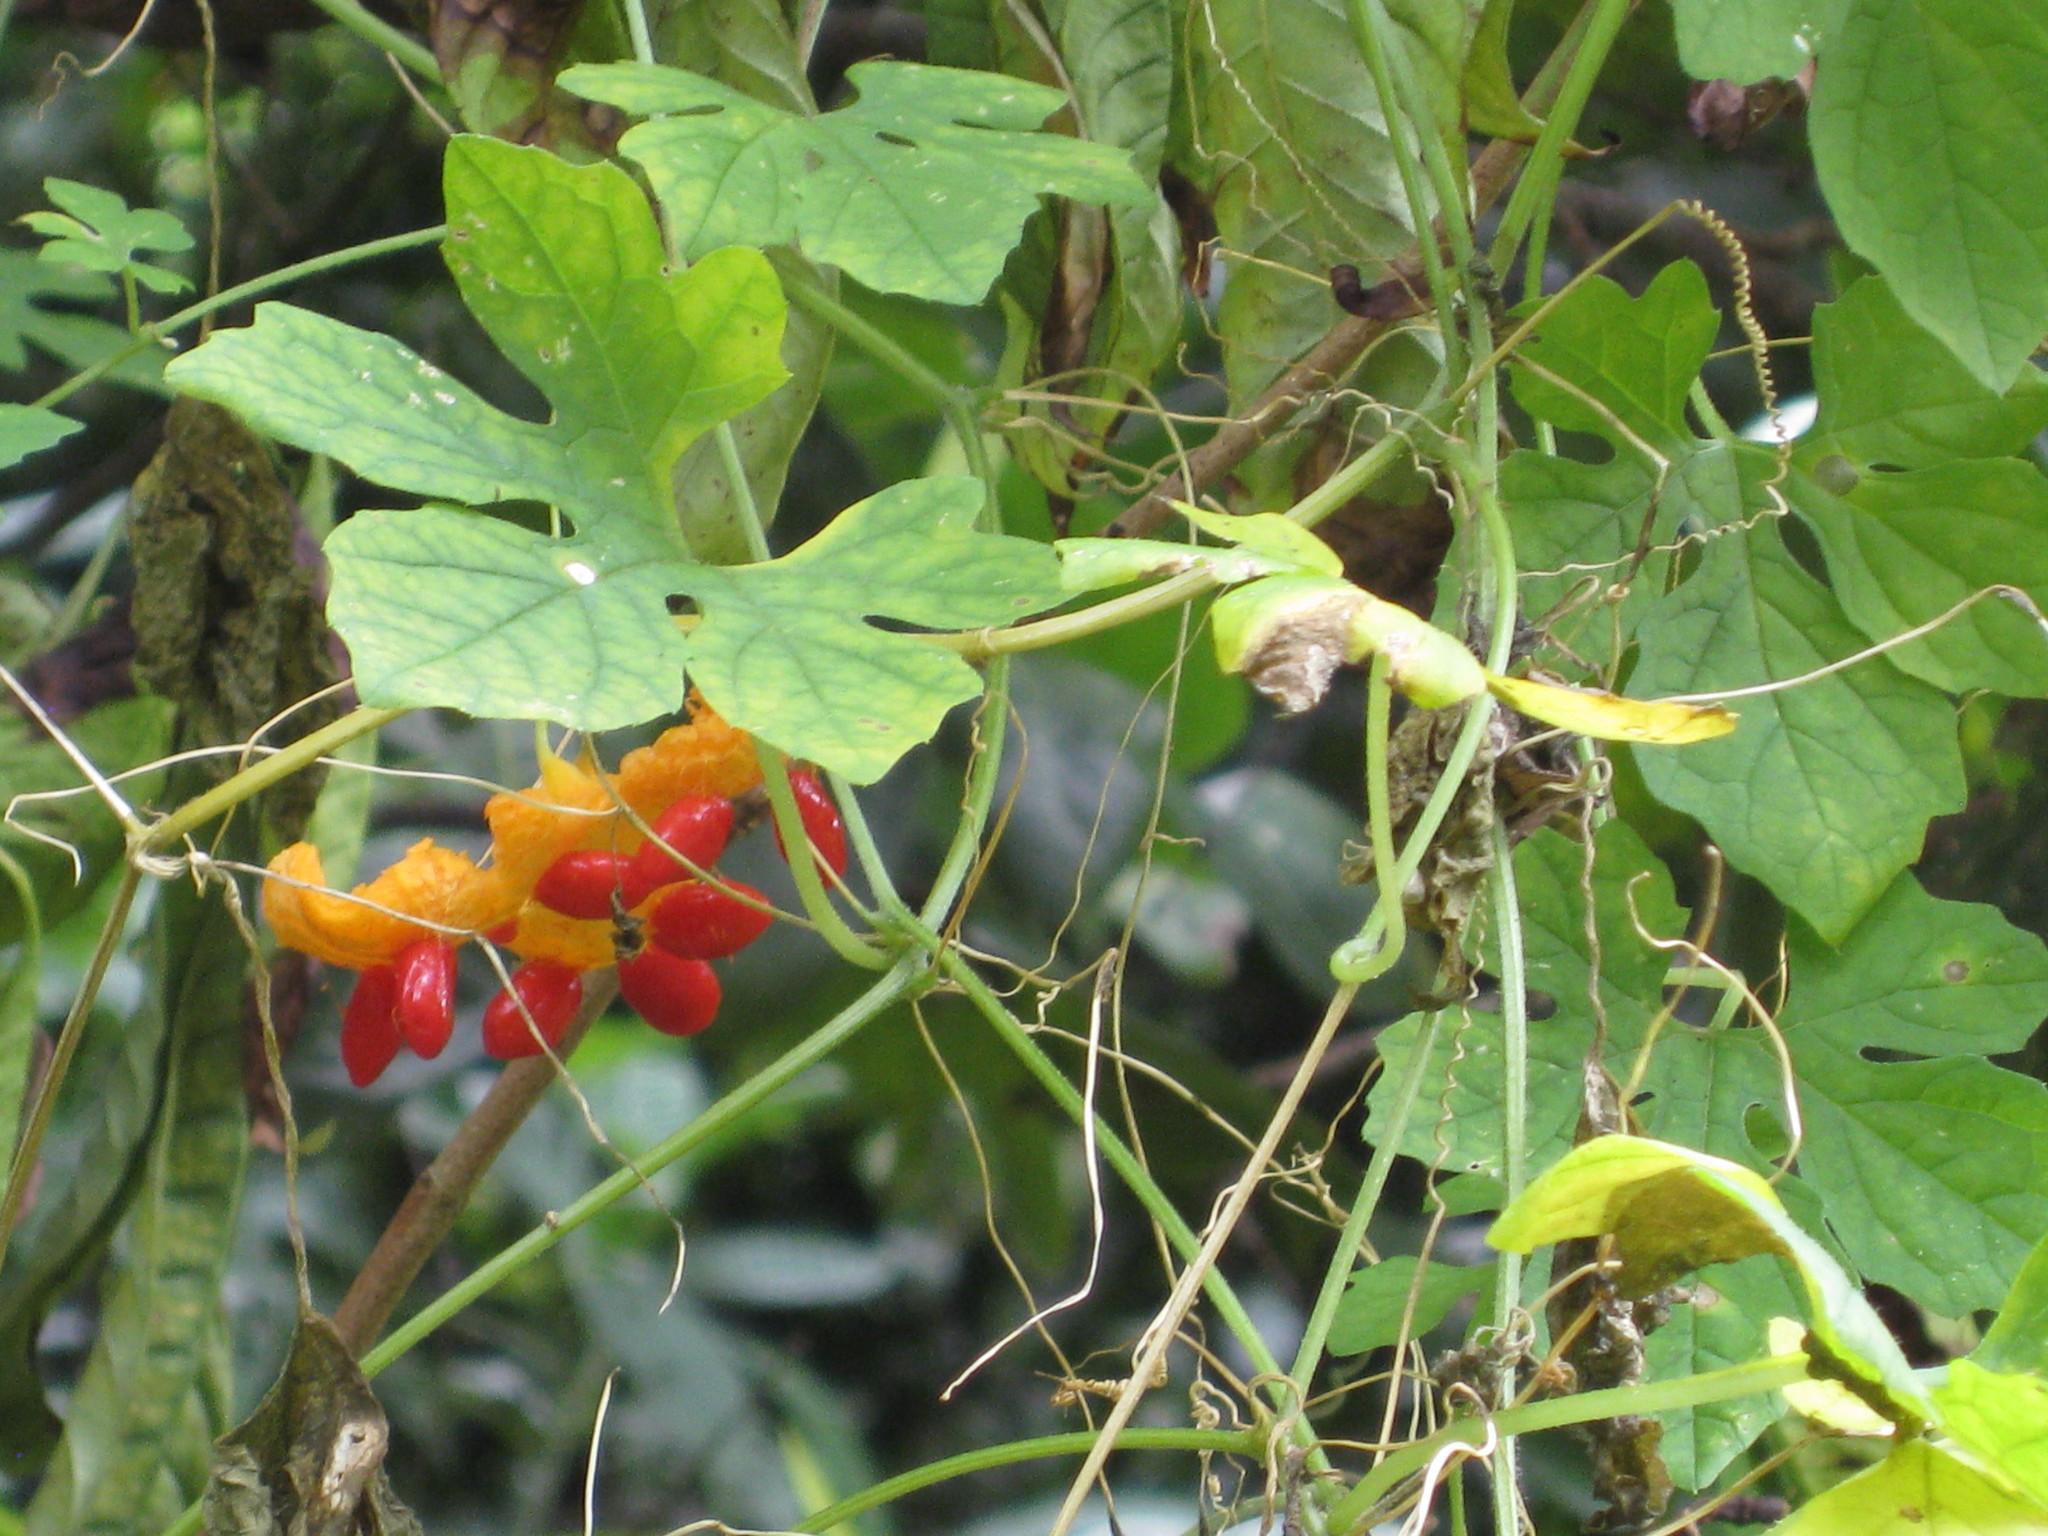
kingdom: Plantae
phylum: Tracheophyta
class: Magnoliopsida
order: Cucurbitales
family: Cucurbitaceae
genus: Momordica
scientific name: Momordica charantia
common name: Balsampear
